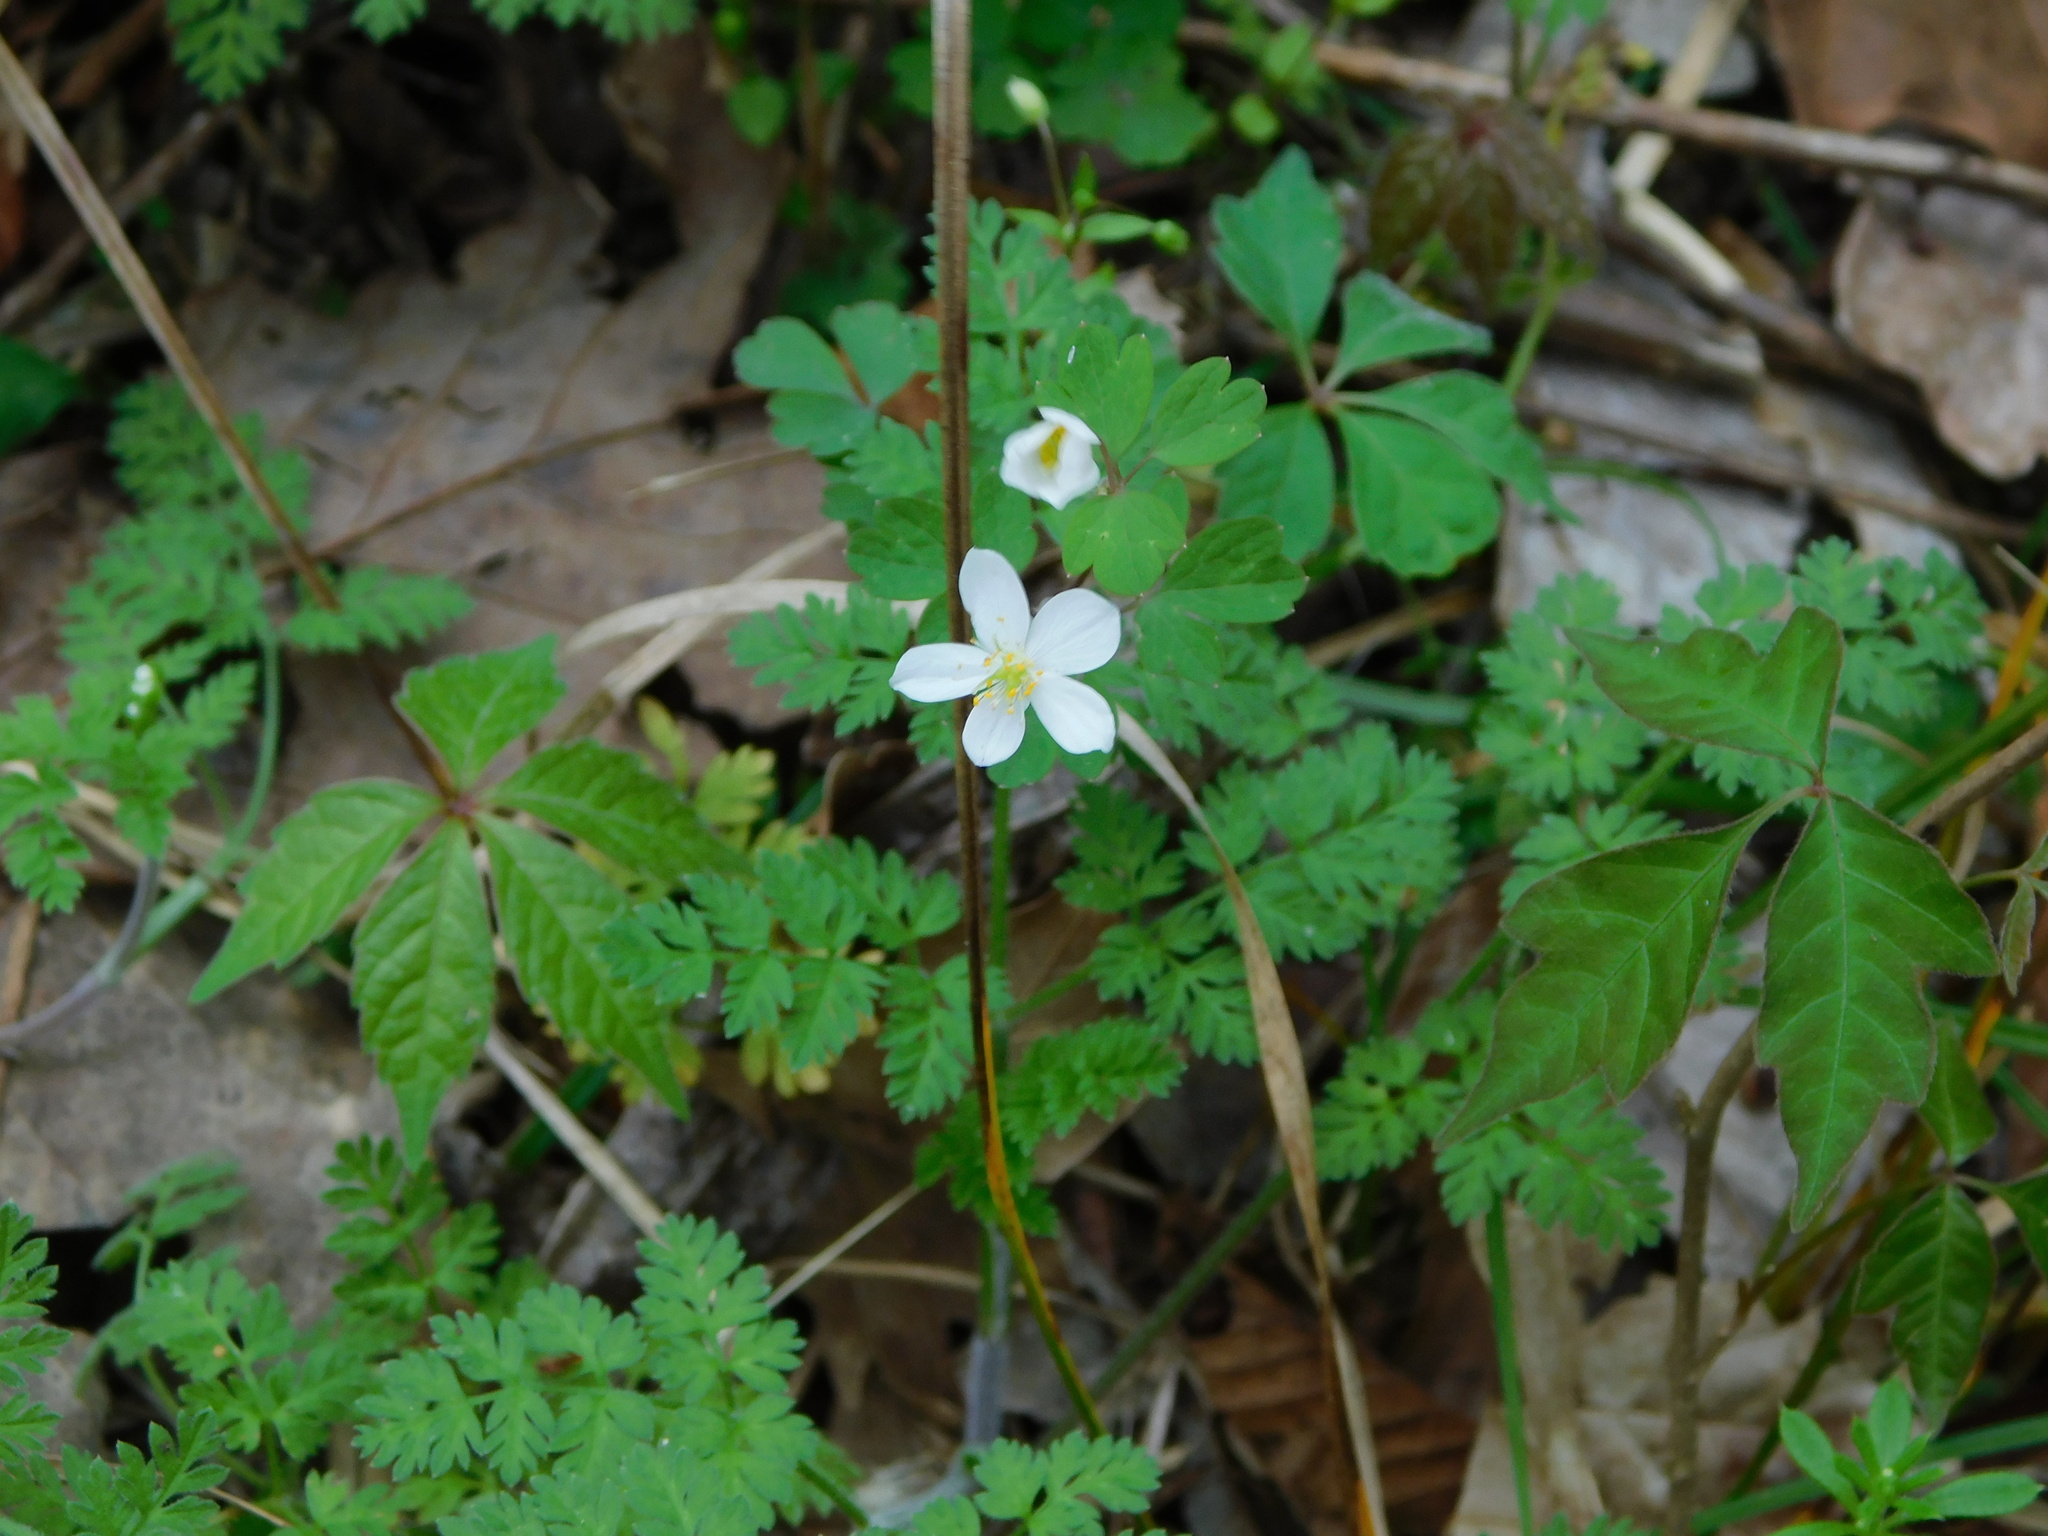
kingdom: Plantae
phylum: Tracheophyta
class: Magnoliopsida
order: Ranunculales
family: Ranunculaceae
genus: Enemion
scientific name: Enemion biternatum
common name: Eastern false rue-anemone
